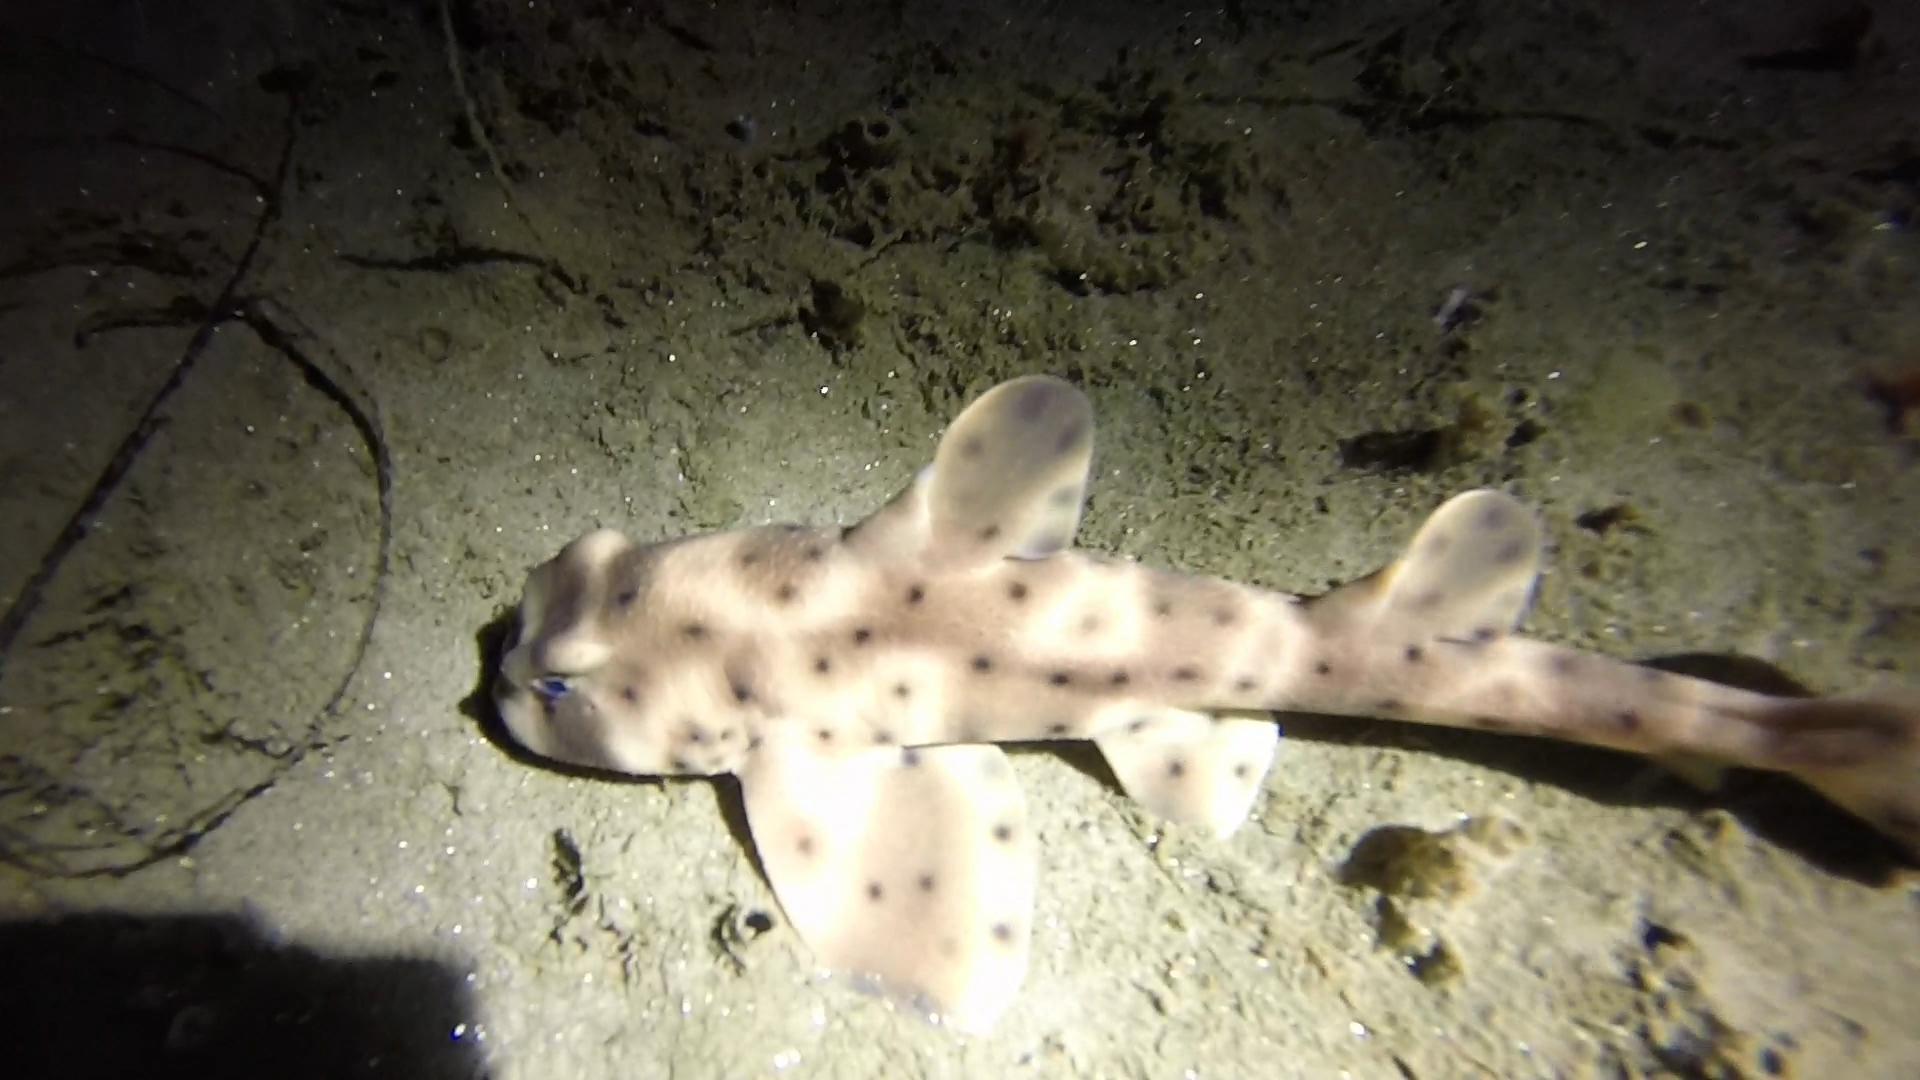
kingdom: Animalia
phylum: Chordata
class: Elasmobranchii
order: Heterodontiformes
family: Heterodontidae
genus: Heterodontus
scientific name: Heterodontus francisci
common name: Horn shark
